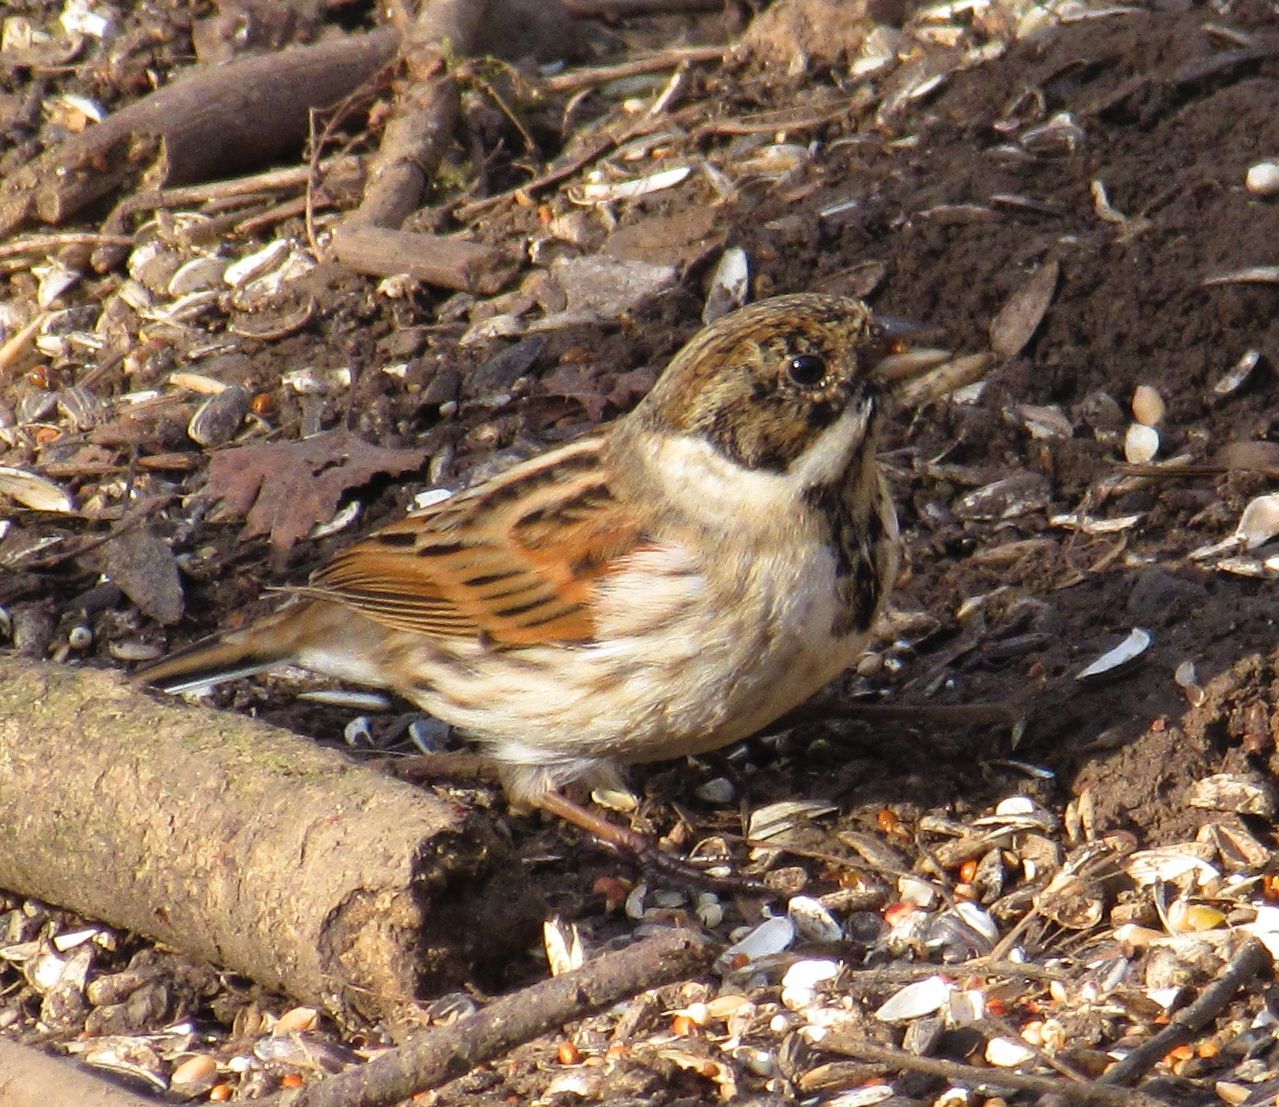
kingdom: Animalia
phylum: Chordata
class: Aves
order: Passeriformes
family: Emberizidae
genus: Emberiza
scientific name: Emberiza schoeniclus
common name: Reed bunting
